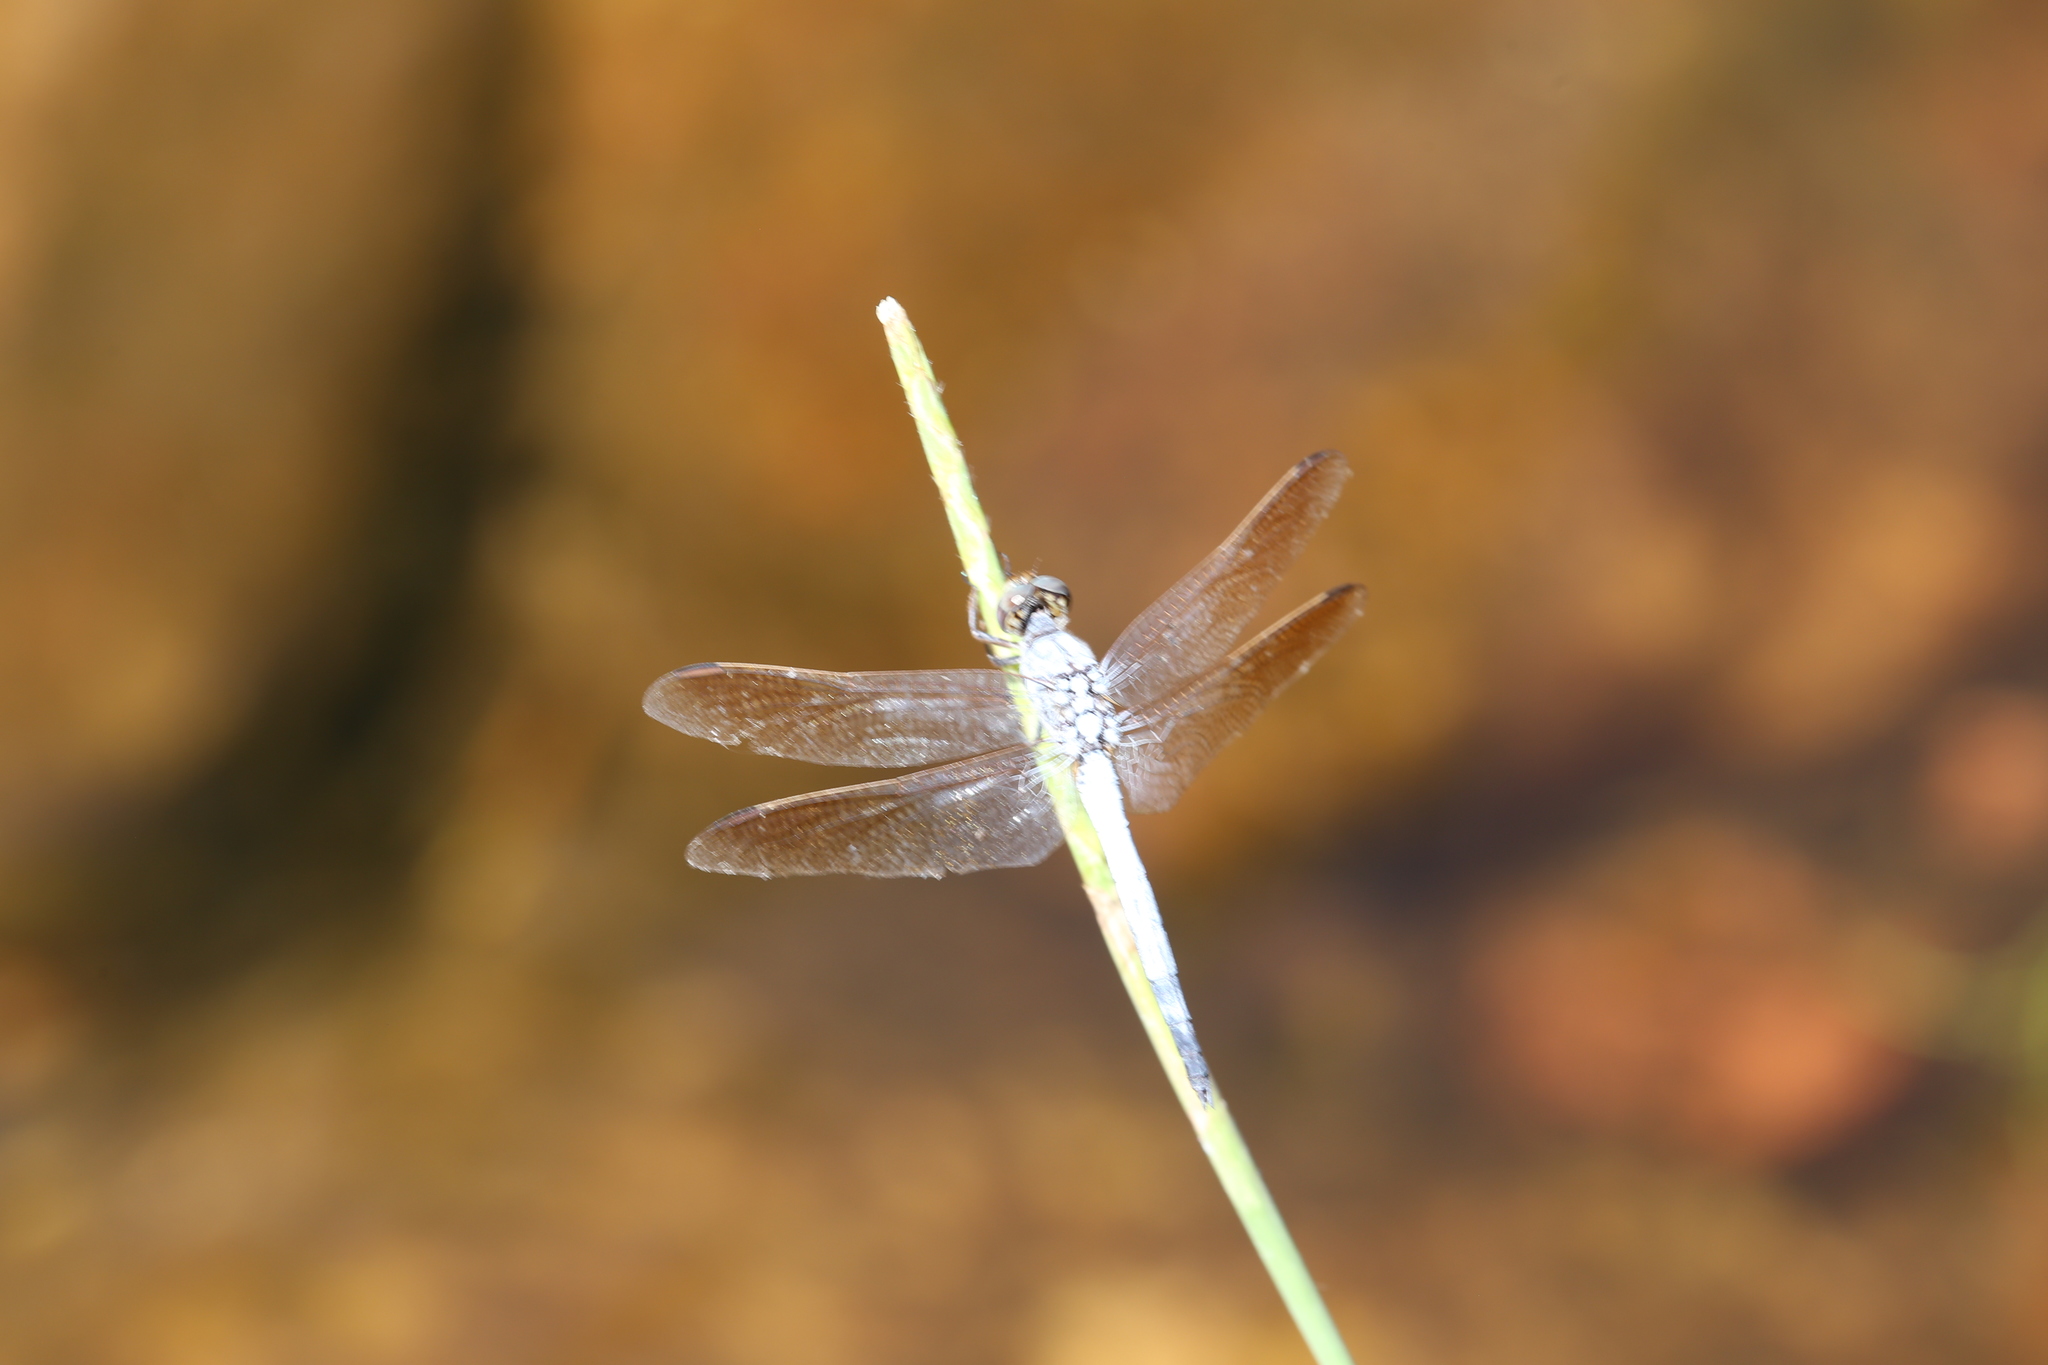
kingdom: Animalia
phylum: Arthropoda
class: Insecta
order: Odonata
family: Libellulidae
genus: Orthetrum
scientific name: Orthetrum caledonicum
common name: Blue skimmer
